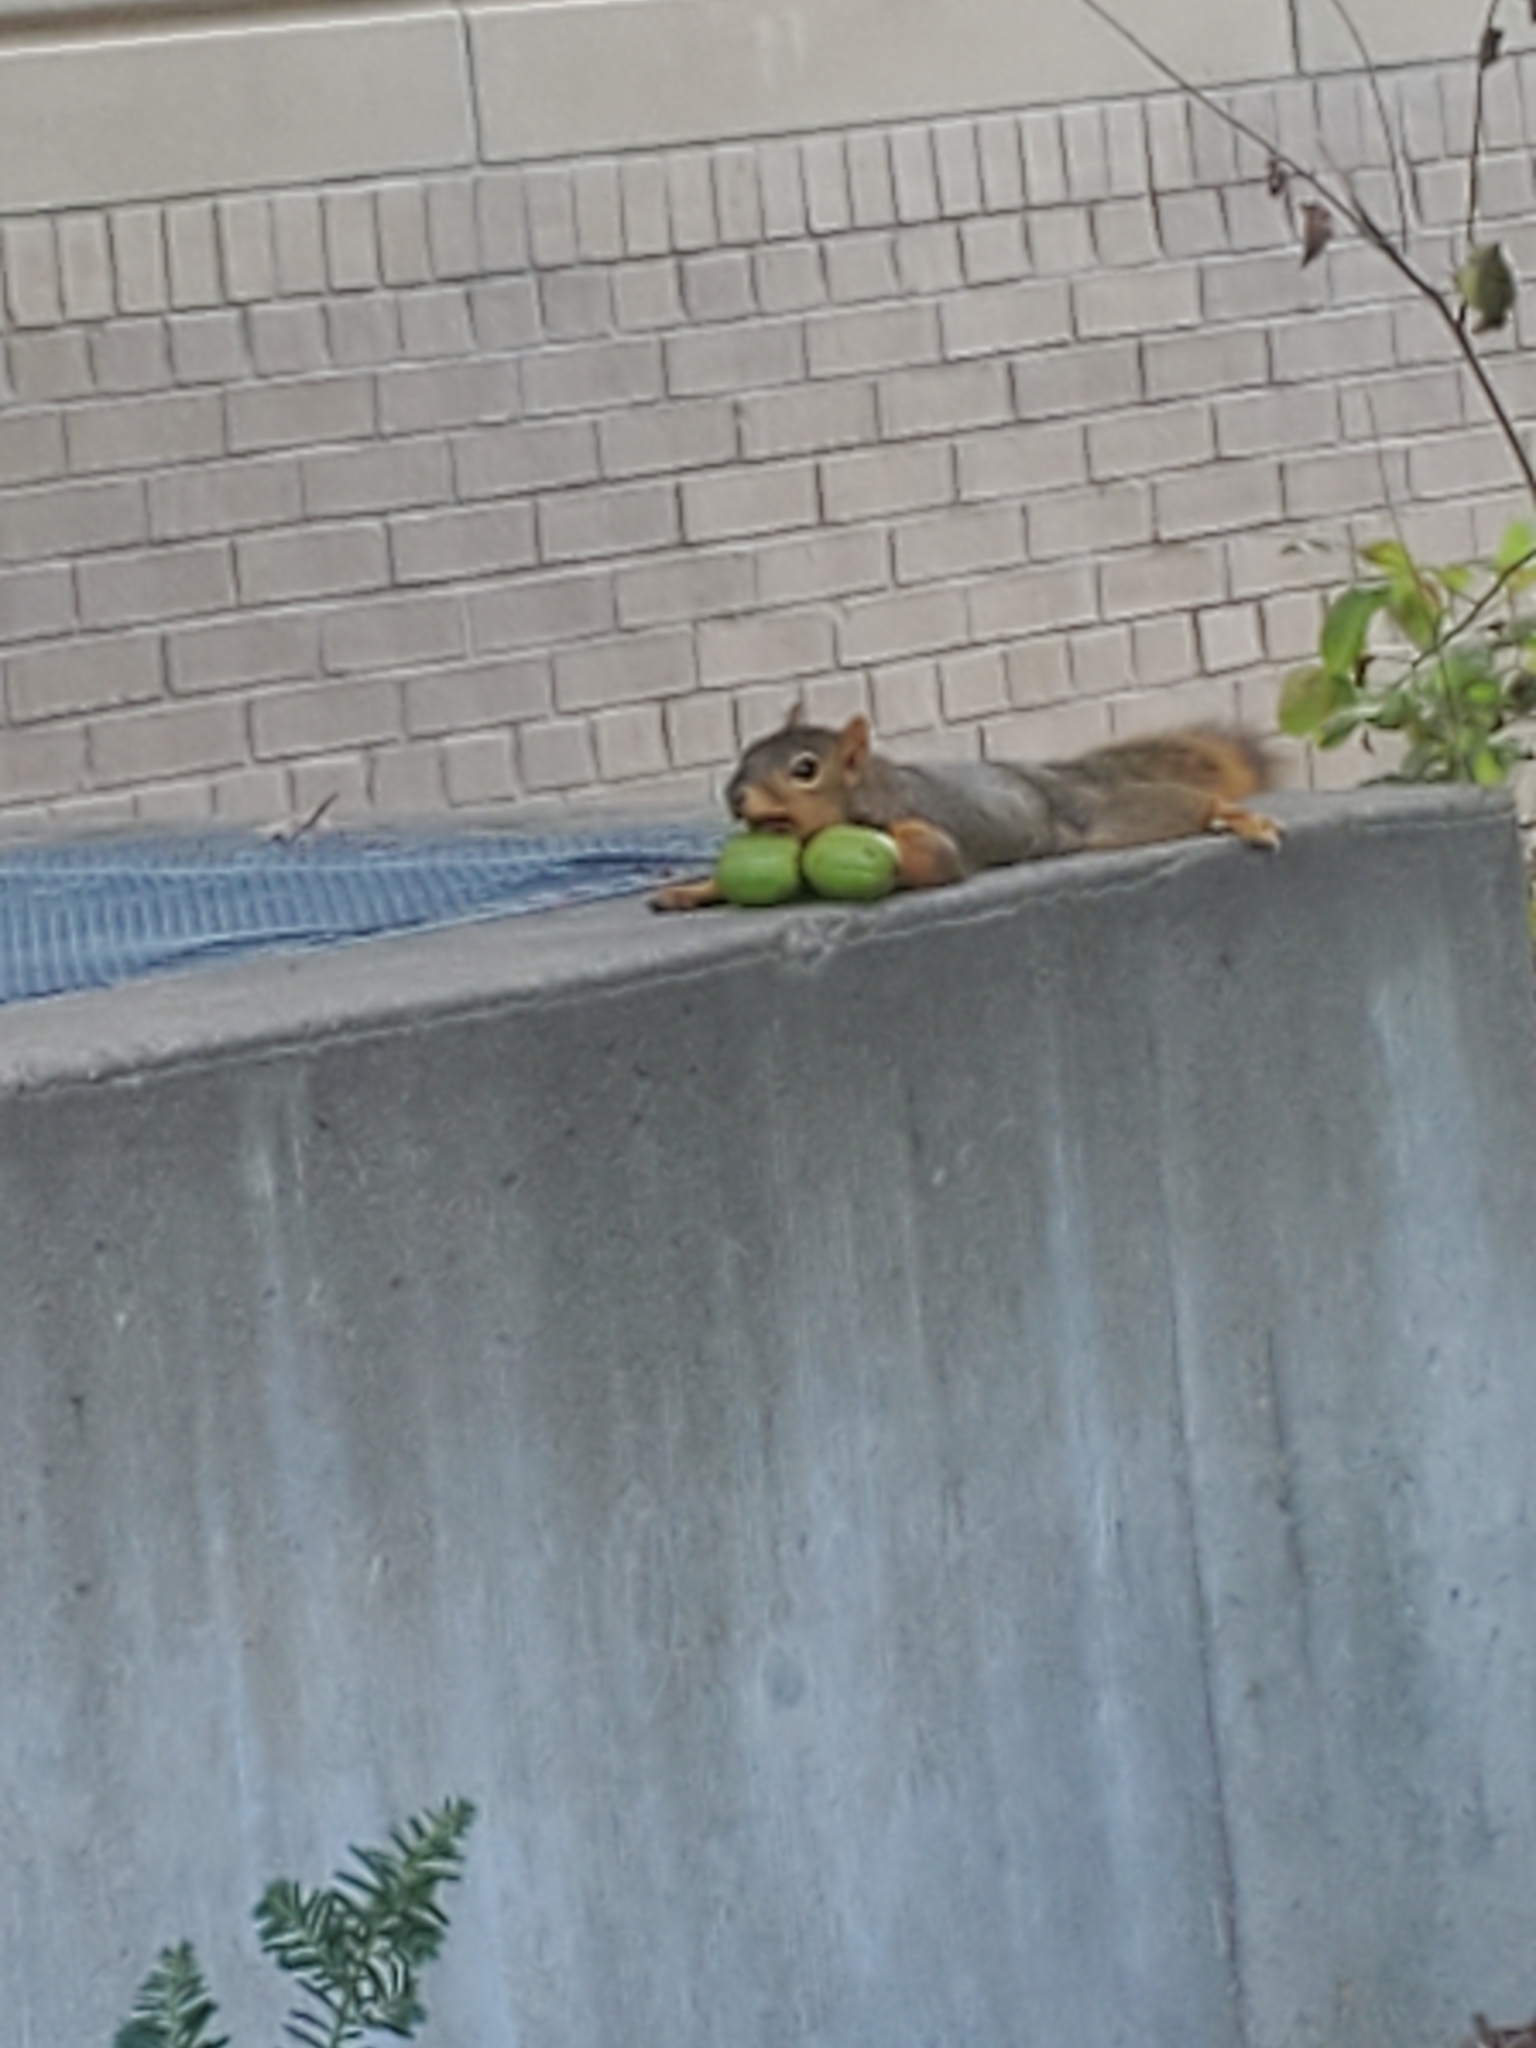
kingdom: Animalia
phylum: Chordata
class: Mammalia
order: Rodentia
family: Sciuridae
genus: Sciurus
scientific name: Sciurus niger
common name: Fox squirrel
